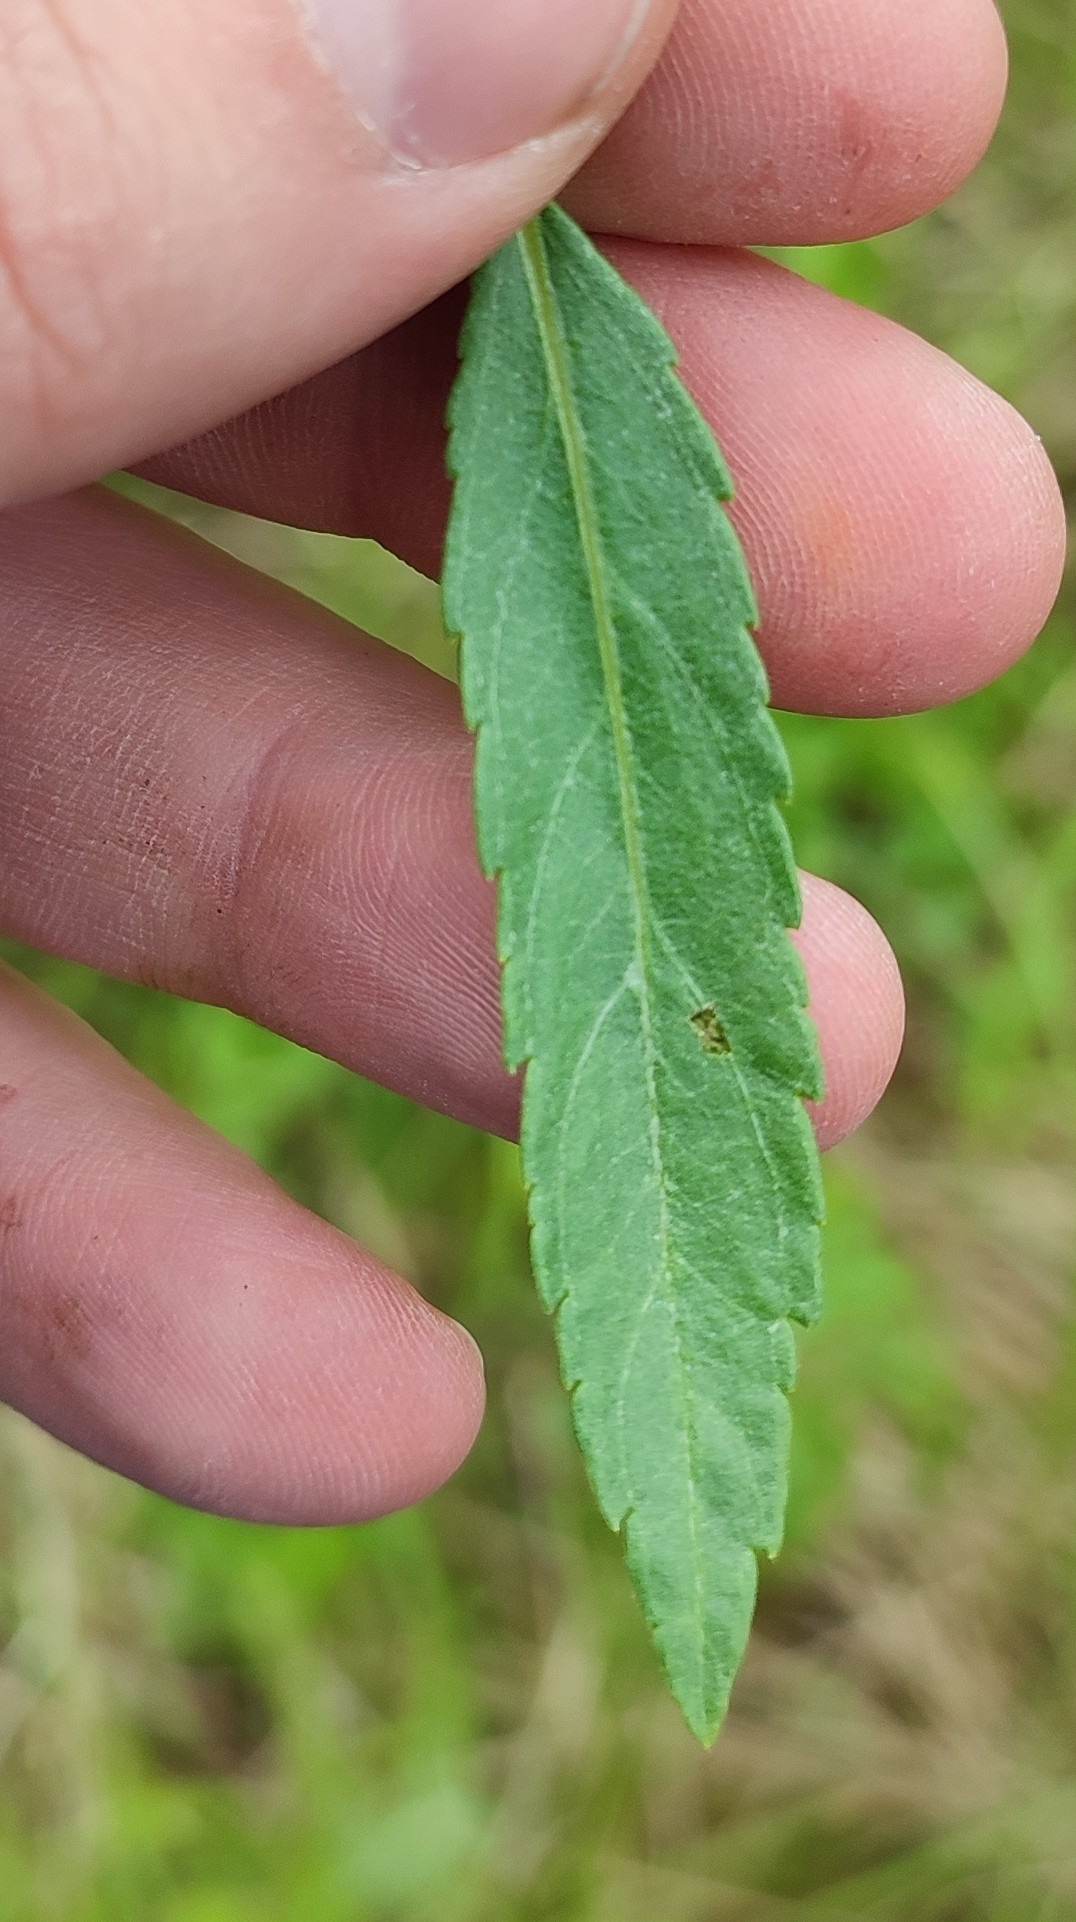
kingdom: Plantae
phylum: Tracheophyta
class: Magnoliopsida
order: Lamiales
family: Plantaginaceae
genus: Veronica
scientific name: Veronica spuria
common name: Bastard speedwell
